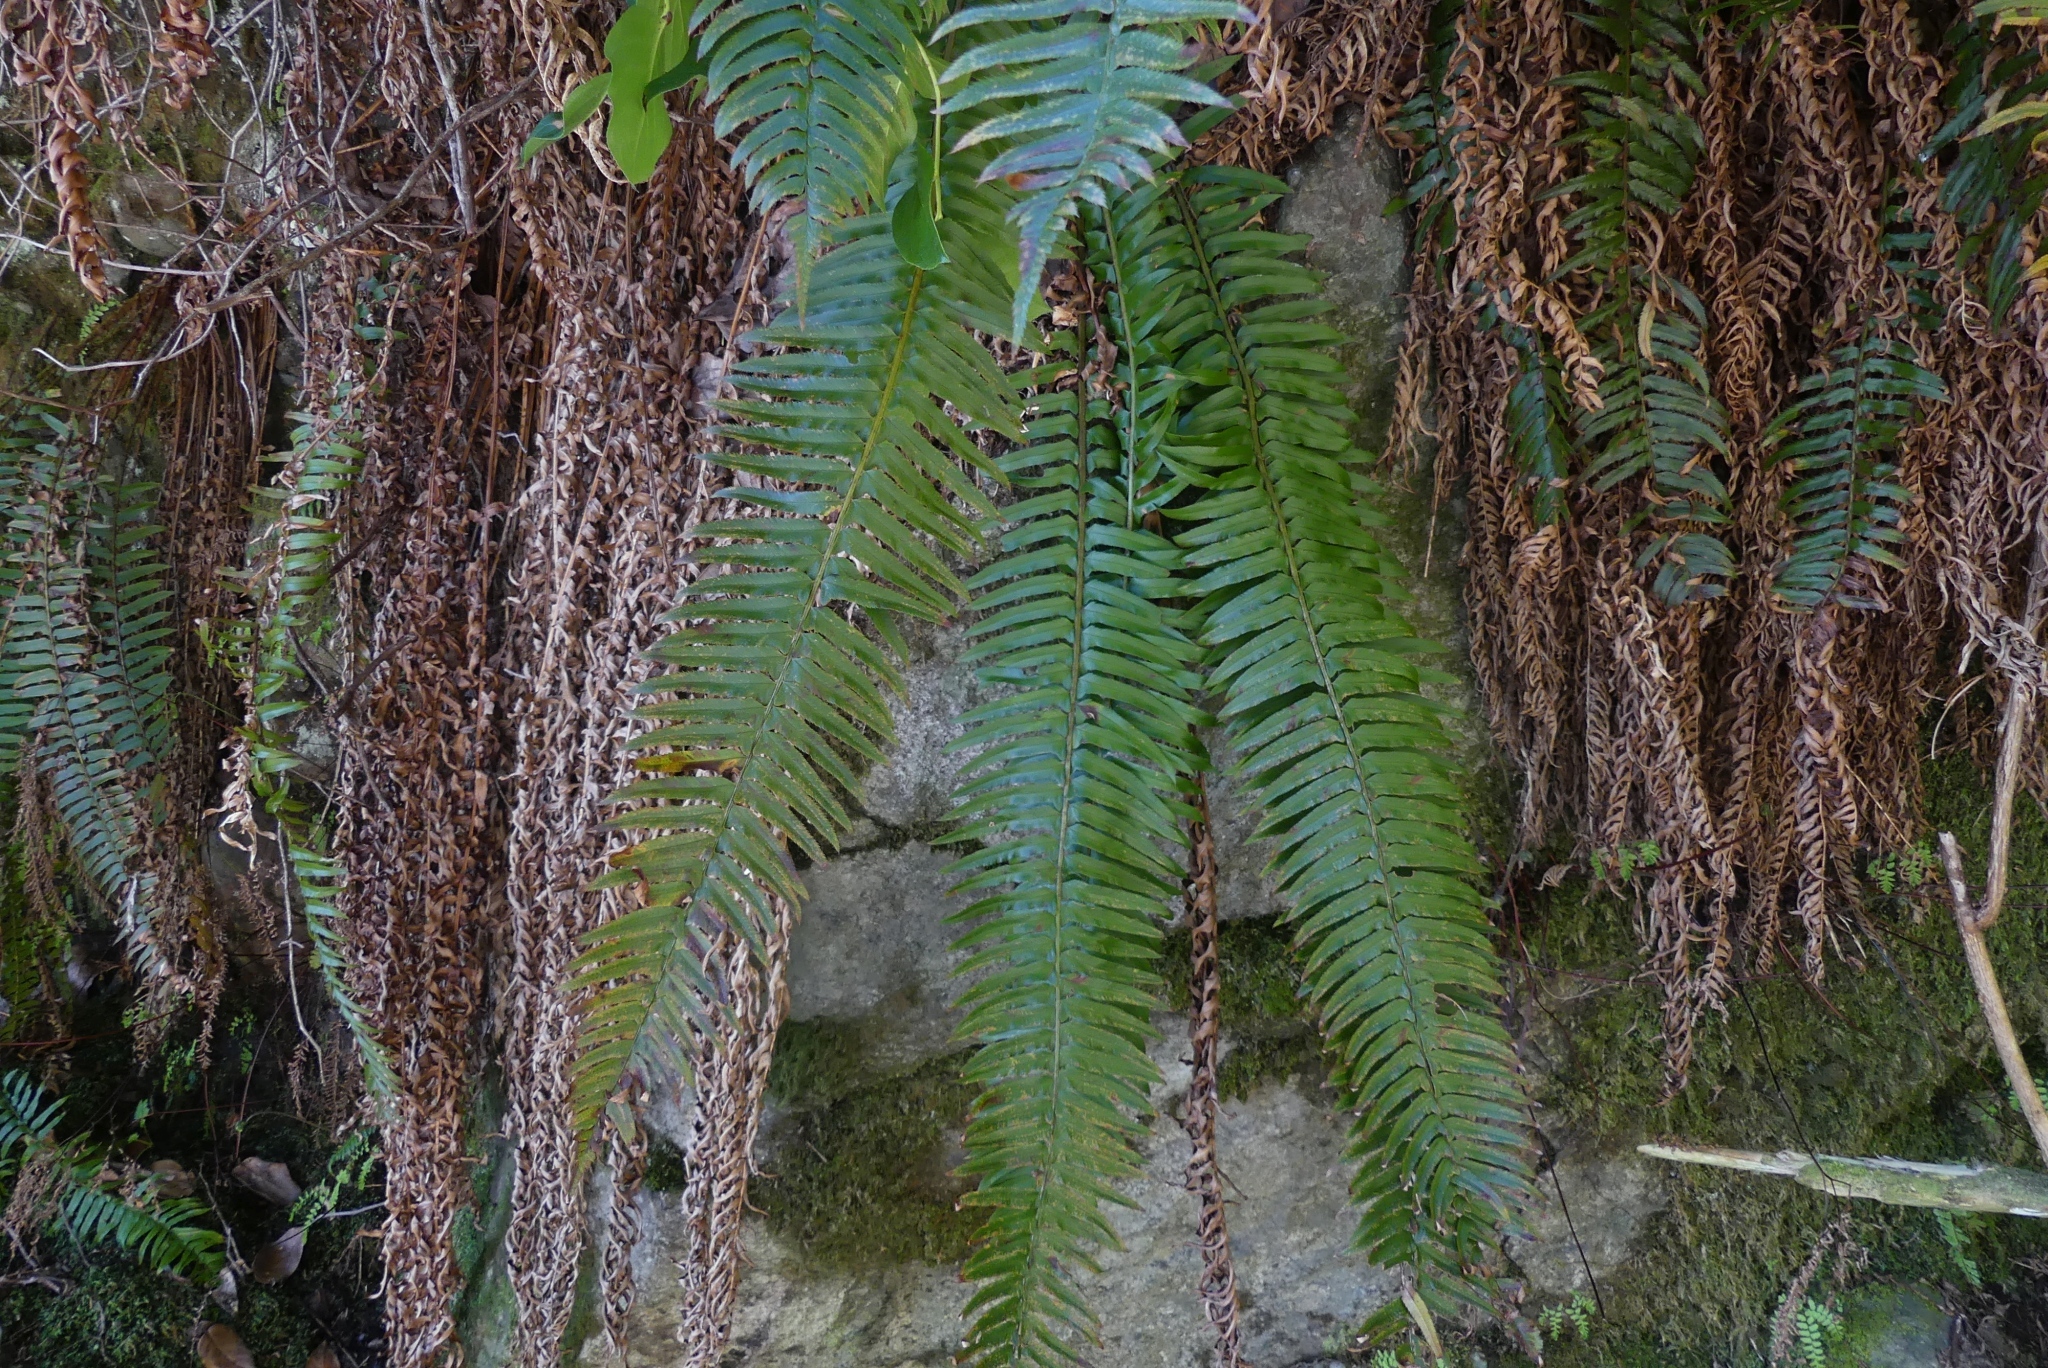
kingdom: Plantae
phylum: Tracheophyta
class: Polypodiopsida
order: Polypodiales
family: Dryopteridaceae
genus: Polystichum
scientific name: Polystichum munitum
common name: Western sword-fern
